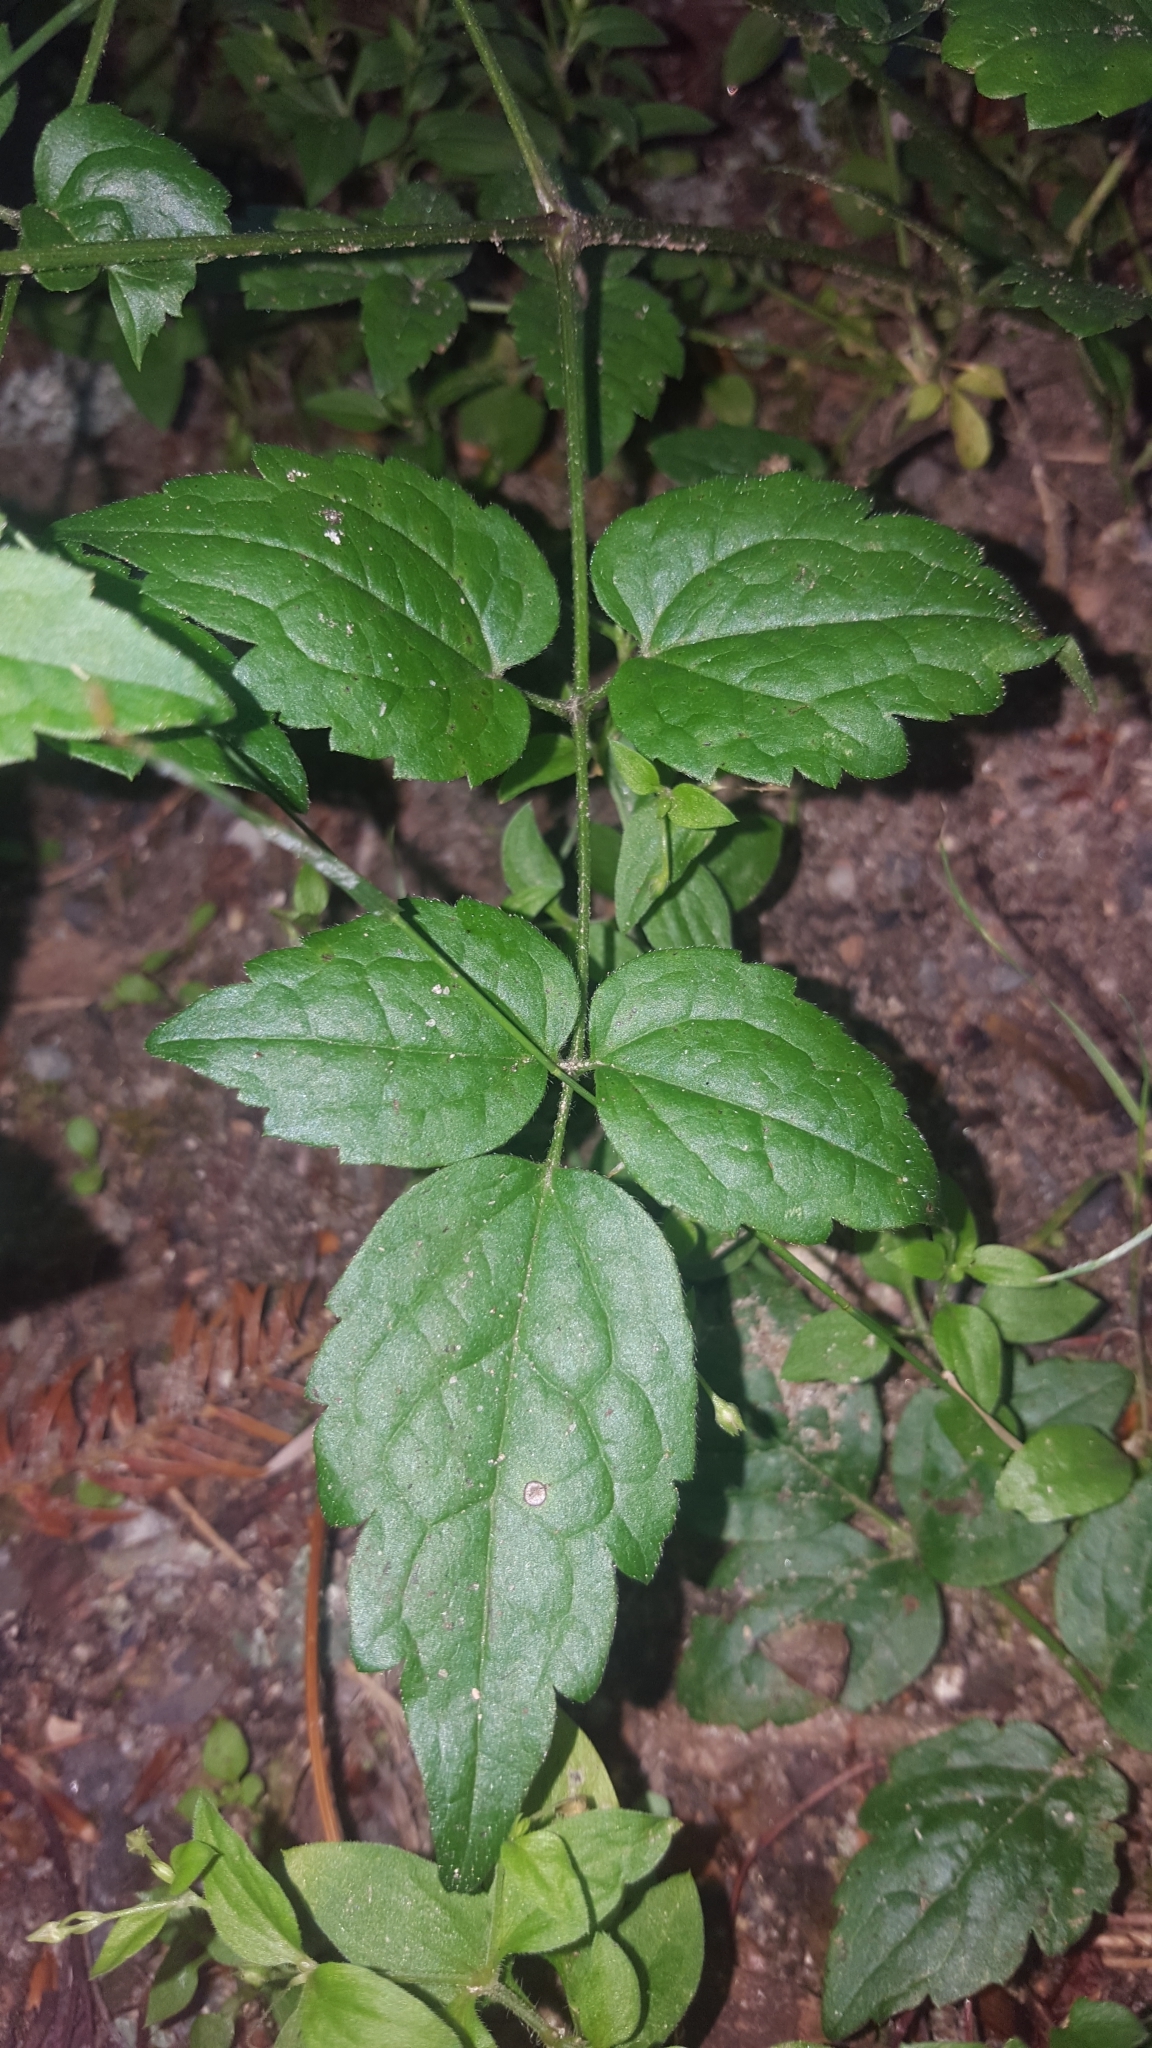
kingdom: Plantae
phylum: Tracheophyta
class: Magnoliopsida
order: Ranunculales
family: Ranunculaceae
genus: Clematis
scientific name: Clematis vitalba
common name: Evergreen clematis
